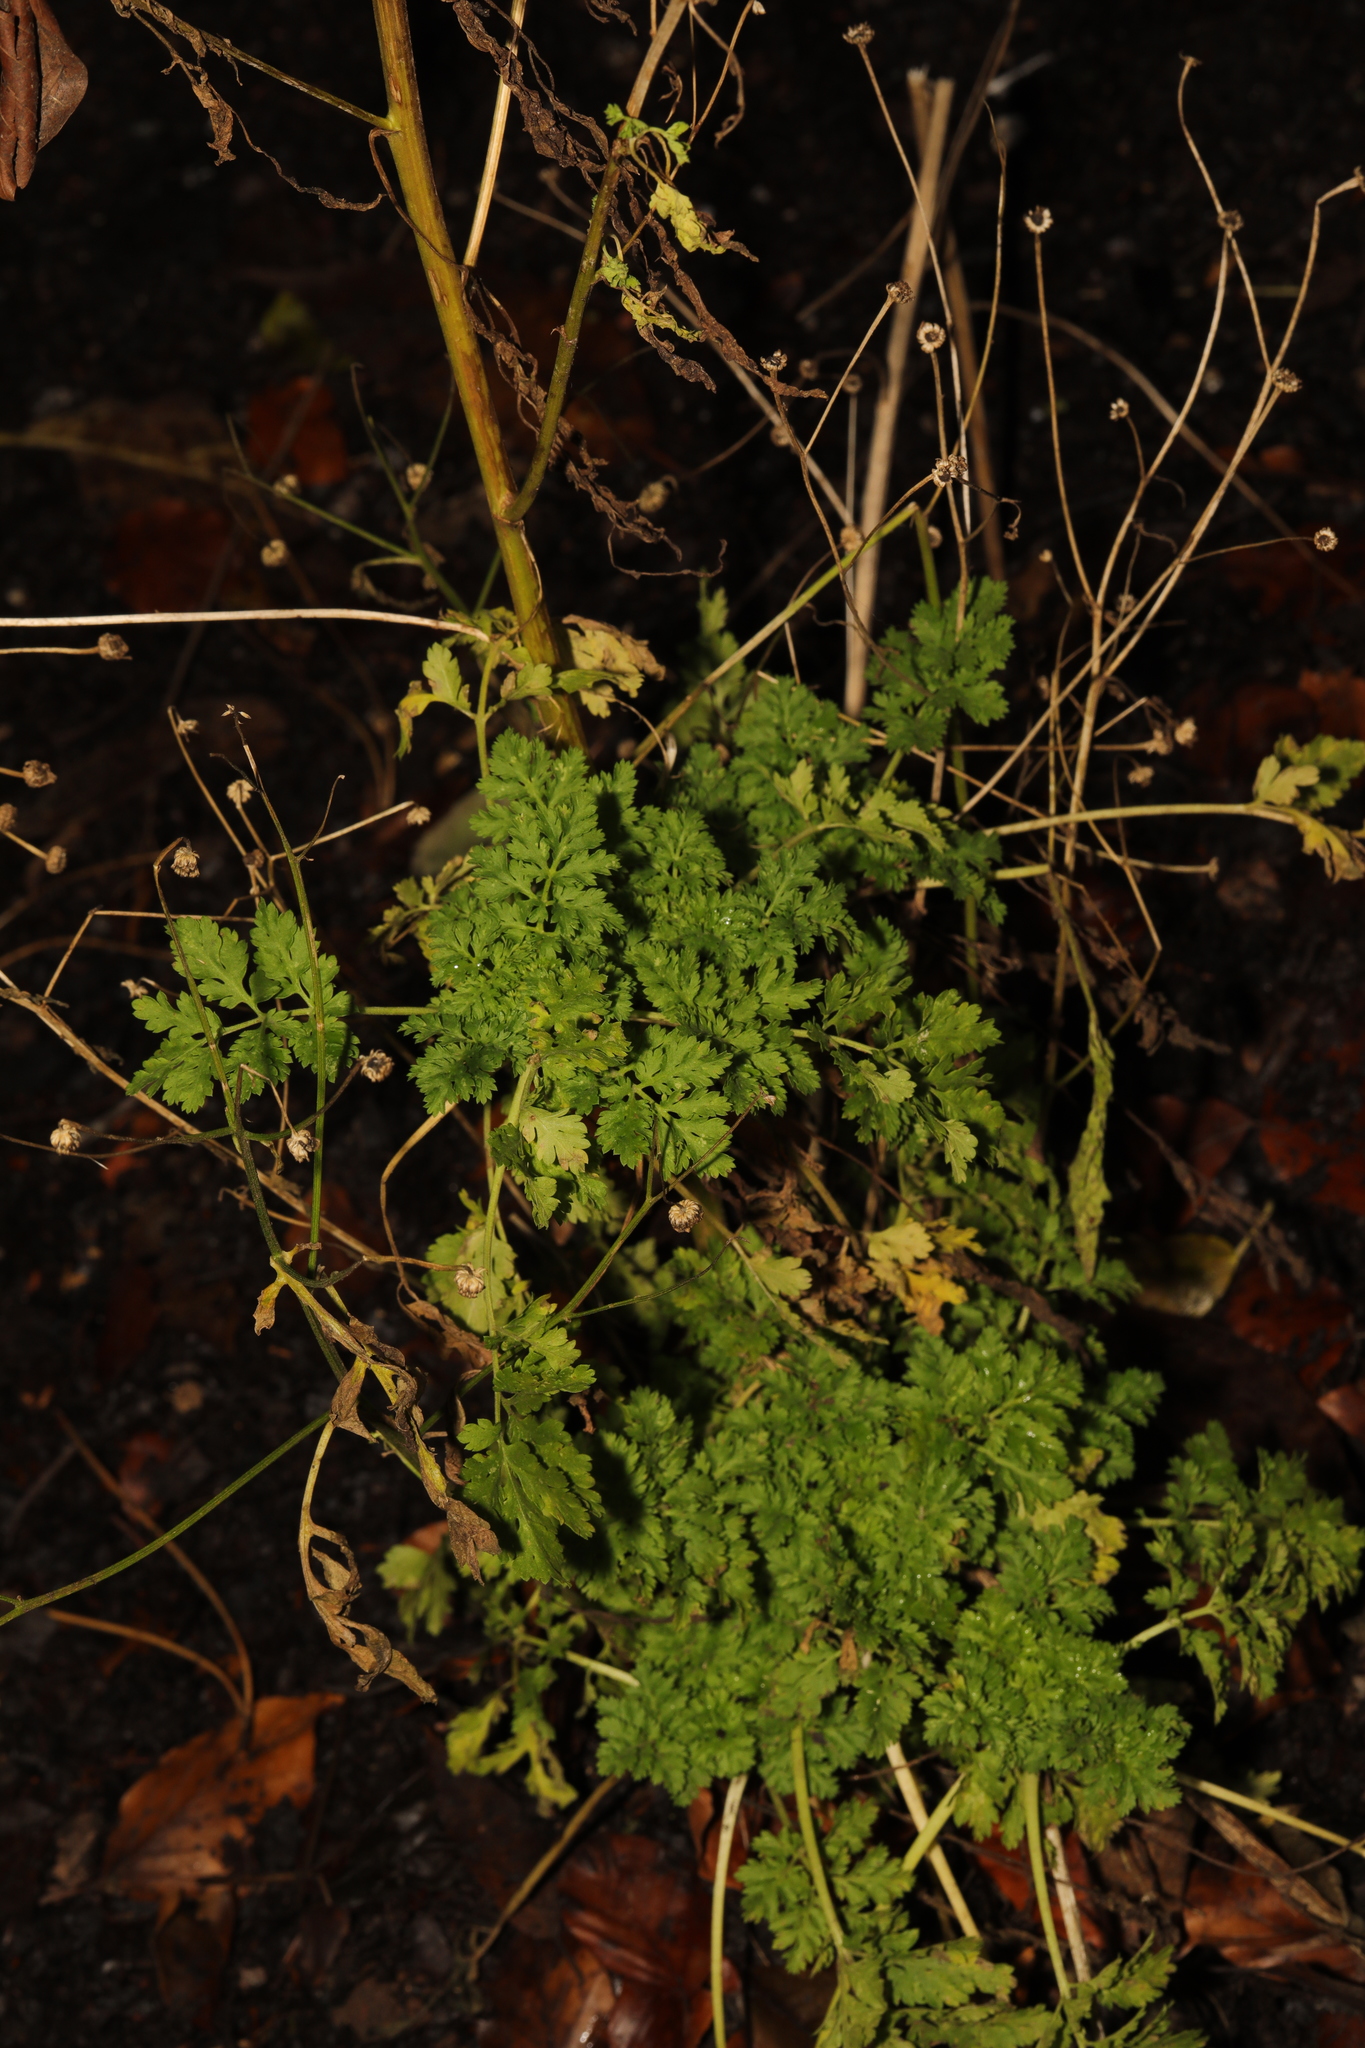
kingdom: Plantae
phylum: Tracheophyta
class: Magnoliopsida
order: Asterales
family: Asteraceae
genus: Tanacetum
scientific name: Tanacetum parthenium
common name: Feverfew
